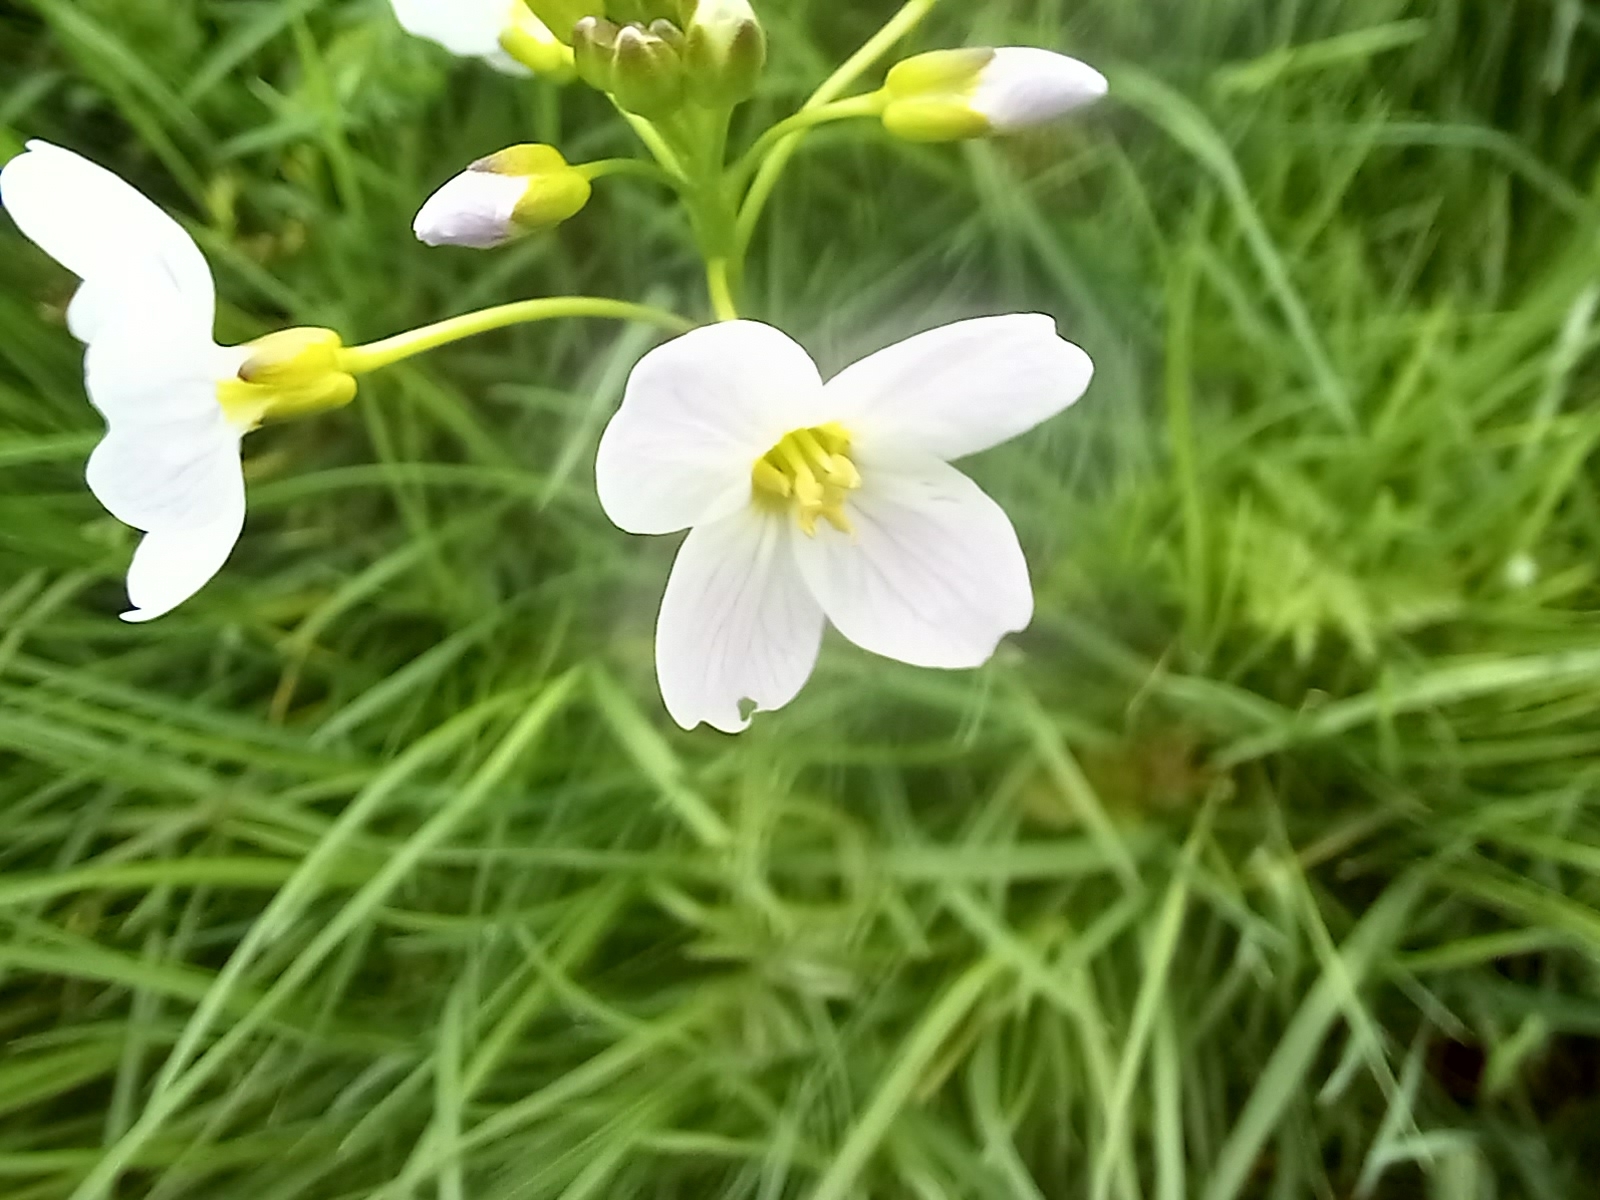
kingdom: Plantae
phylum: Tracheophyta
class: Magnoliopsida
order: Brassicales
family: Brassicaceae
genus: Cardamine
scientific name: Cardamine pratensis
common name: Cuckoo flower
